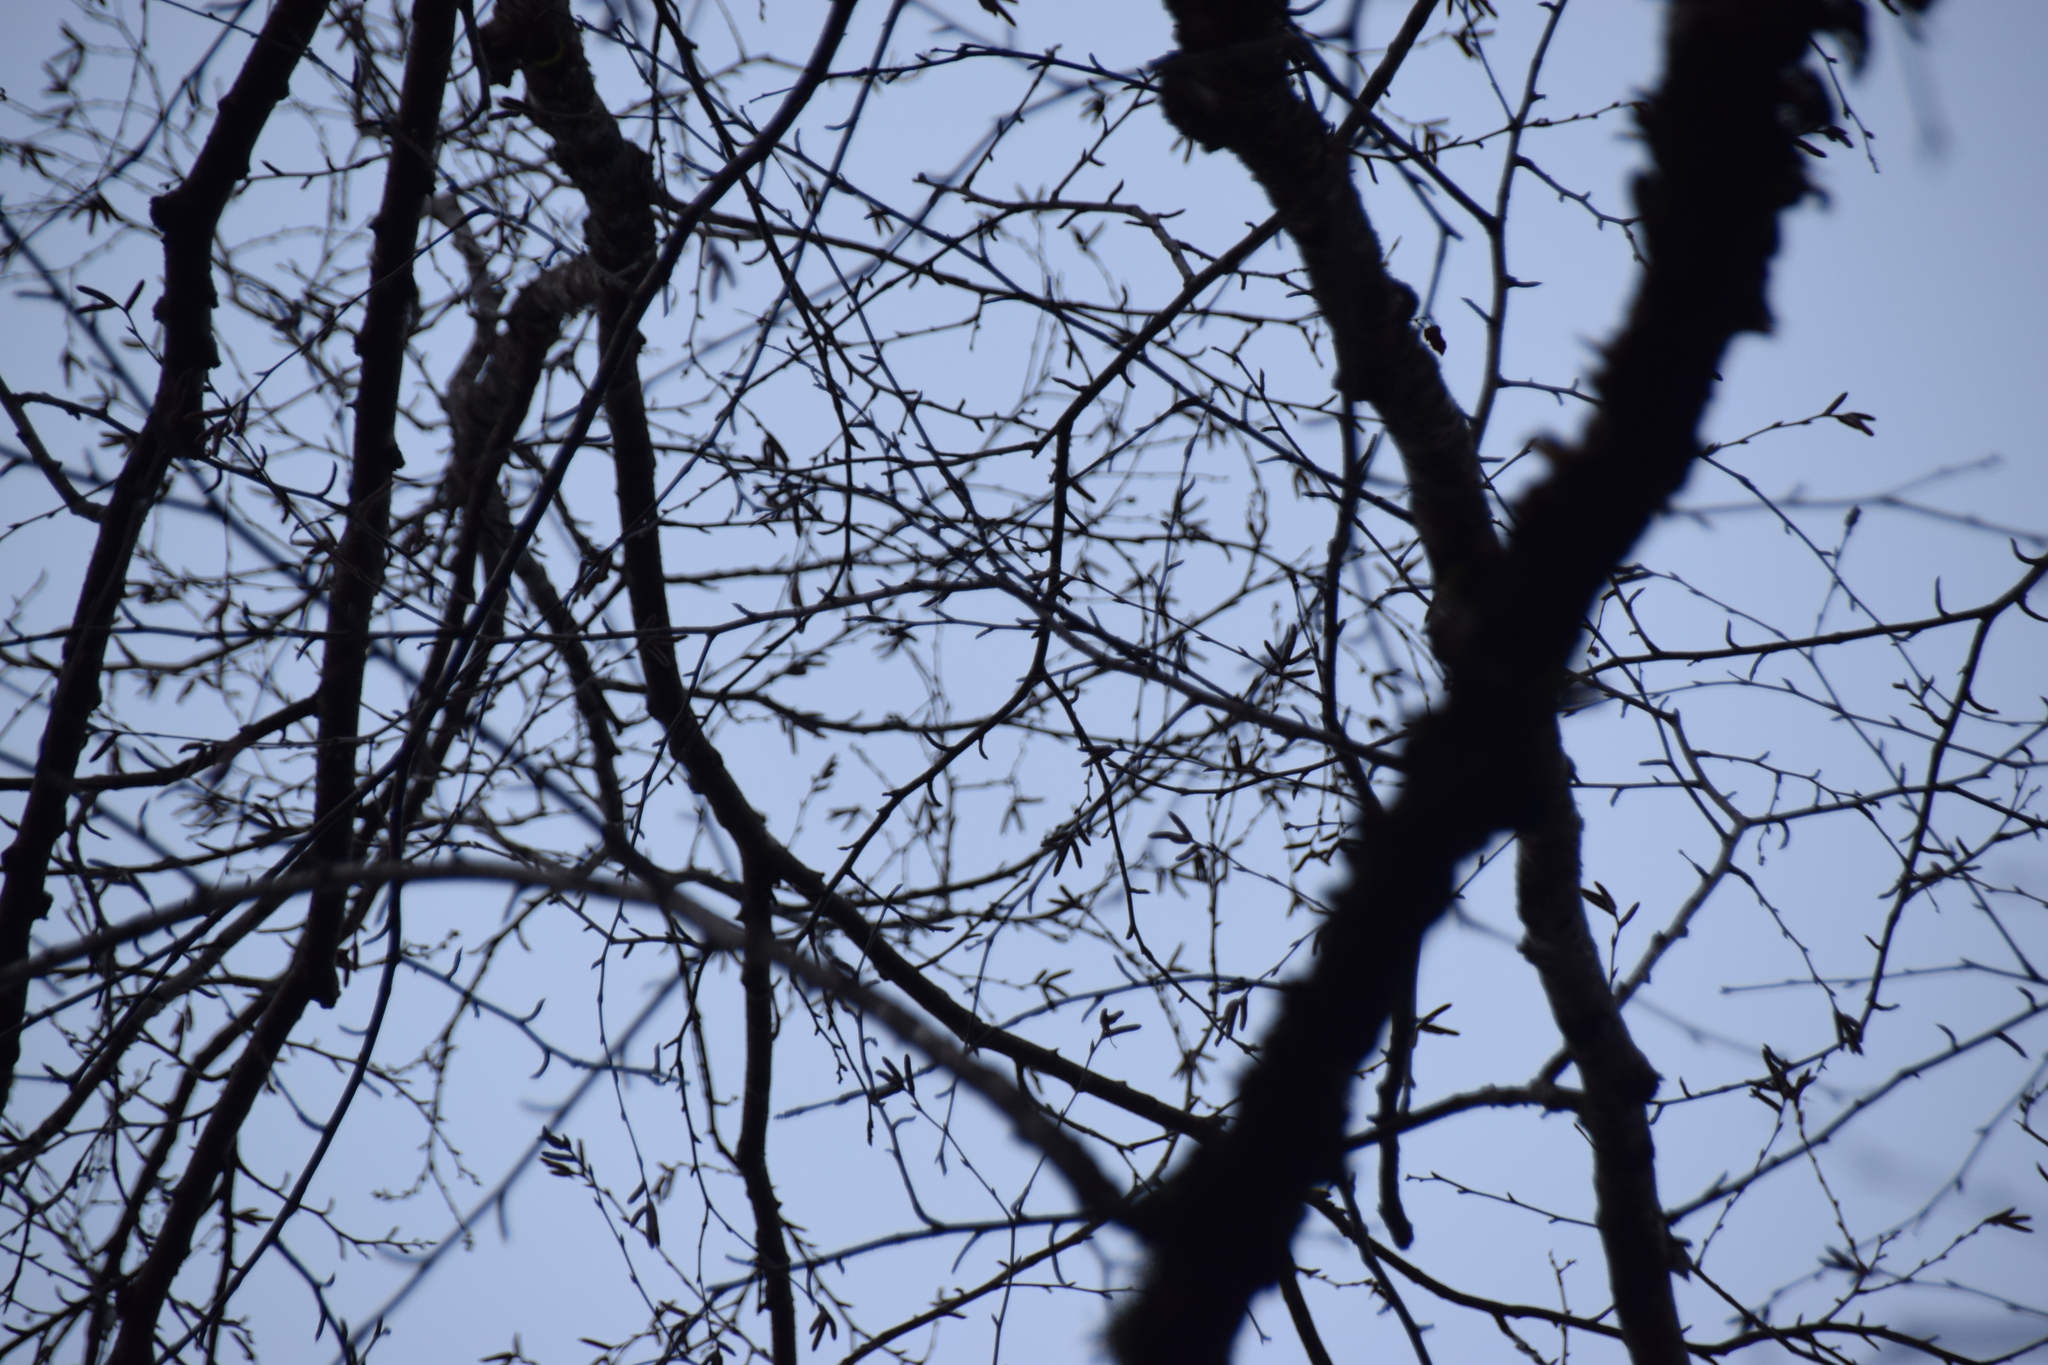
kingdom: Plantae
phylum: Tracheophyta
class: Magnoliopsida
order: Fagales
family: Betulaceae
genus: Betula
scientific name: Betula alleghaniensis
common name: Yellow birch
